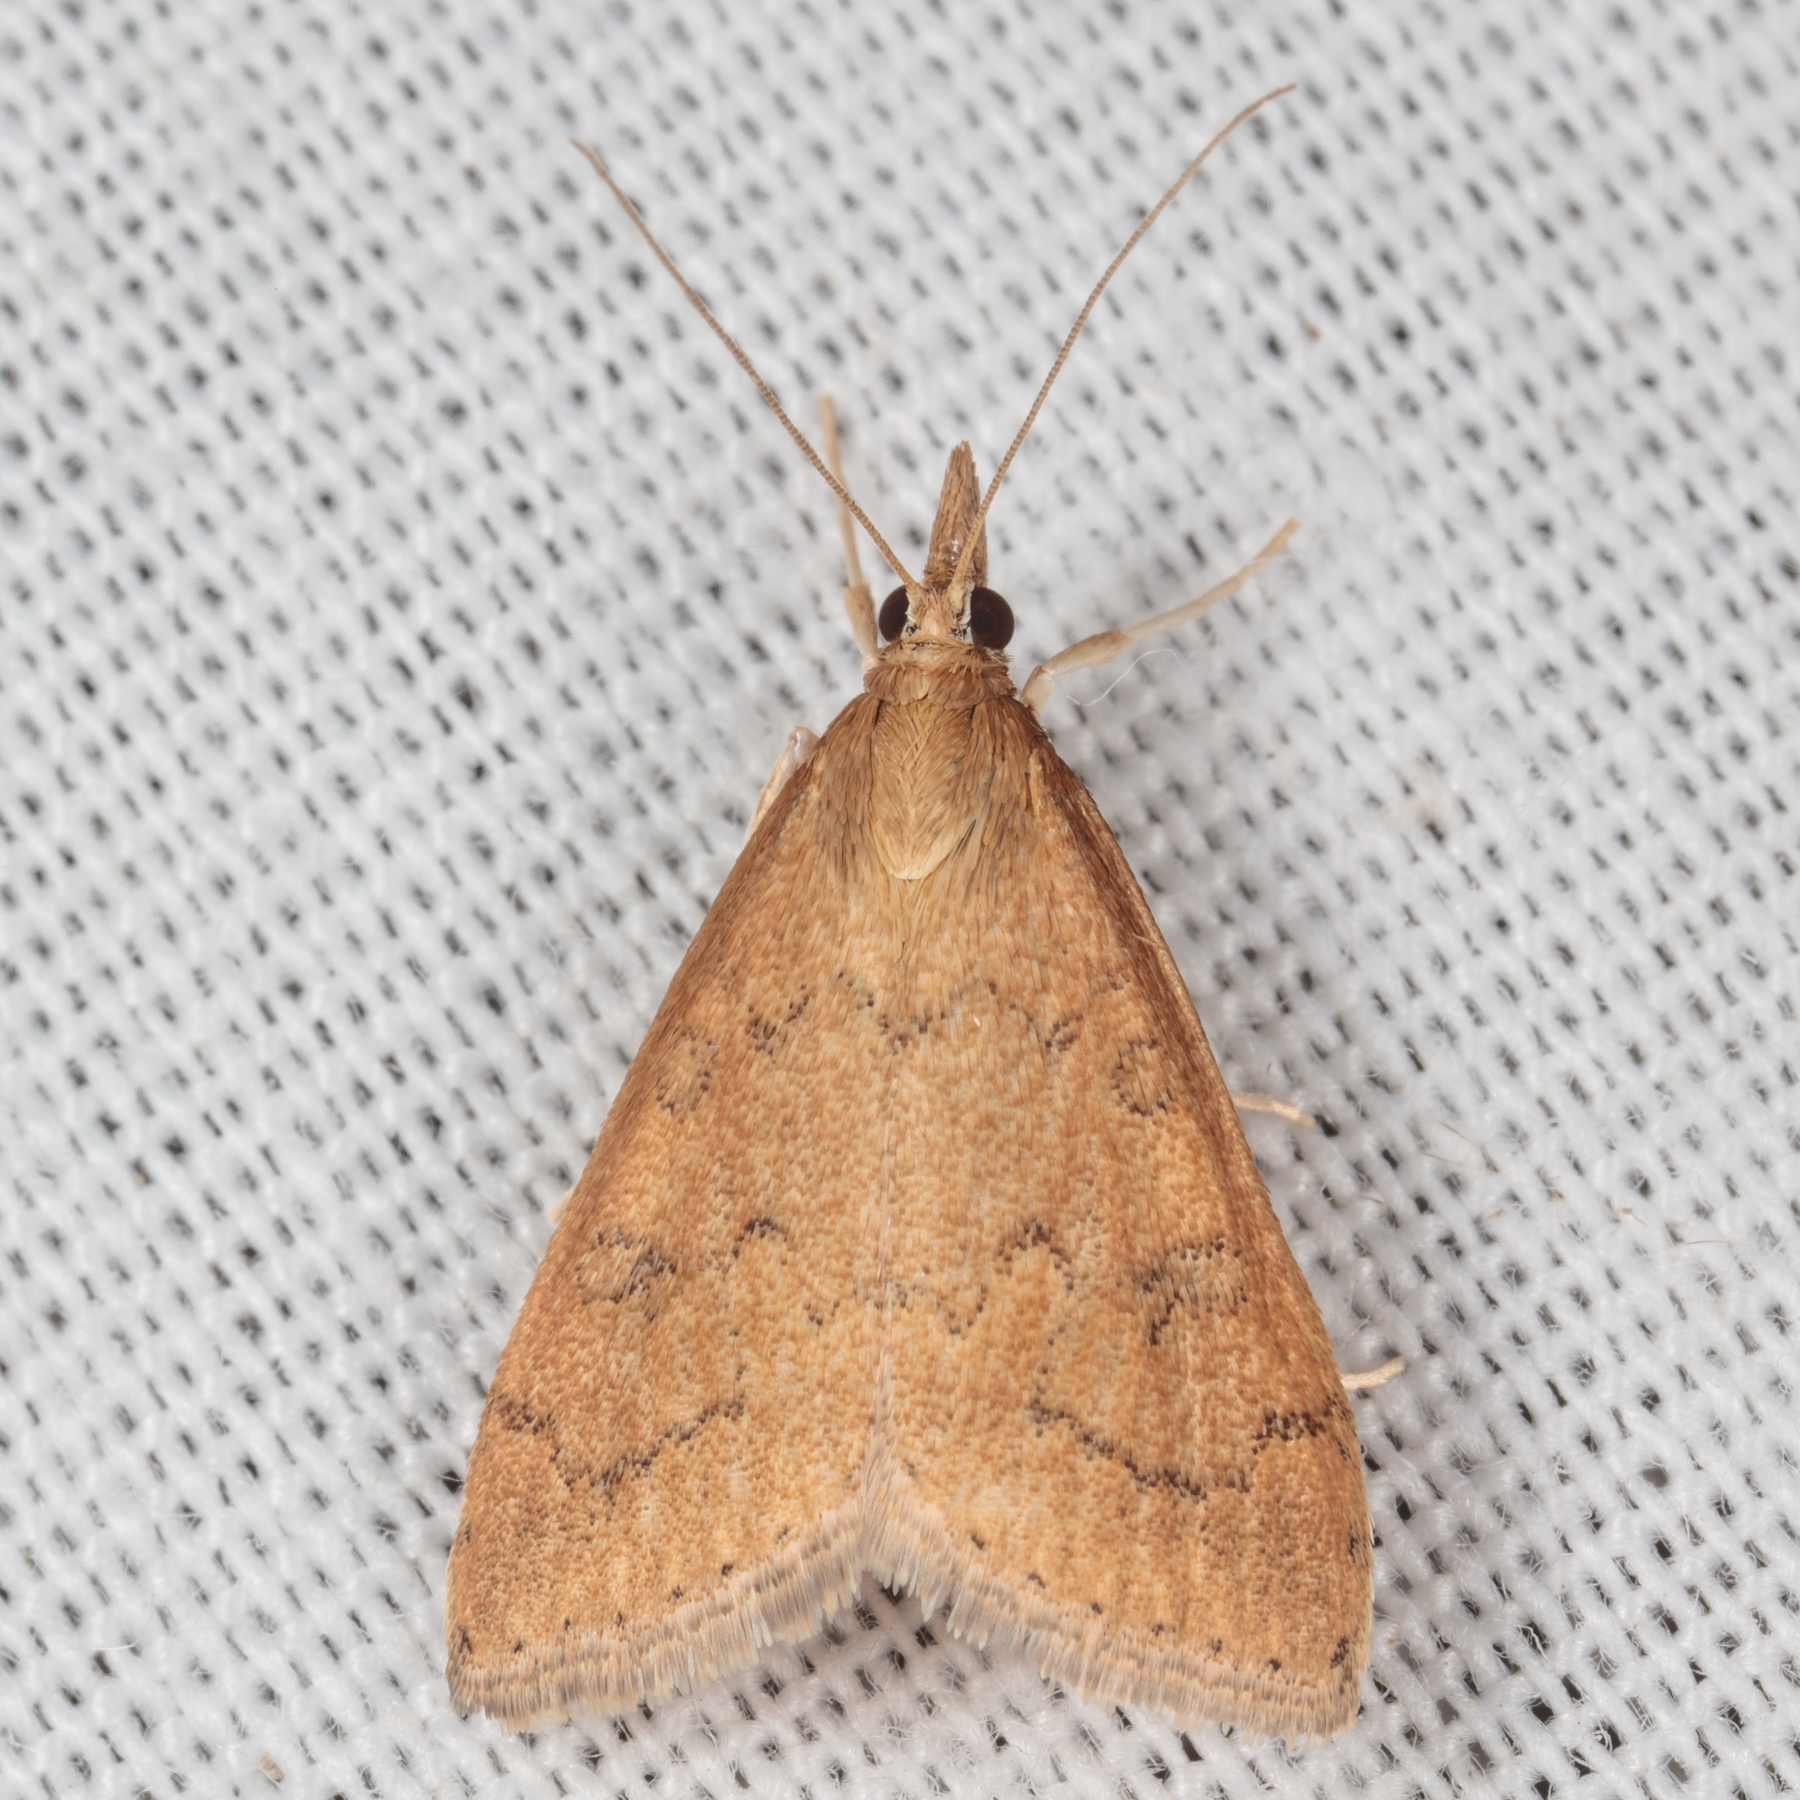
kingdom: Animalia
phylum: Arthropoda
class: Insecta
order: Lepidoptera
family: Crambidae
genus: Udea
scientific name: Udea rubigalis
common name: Celery leaftier moth
